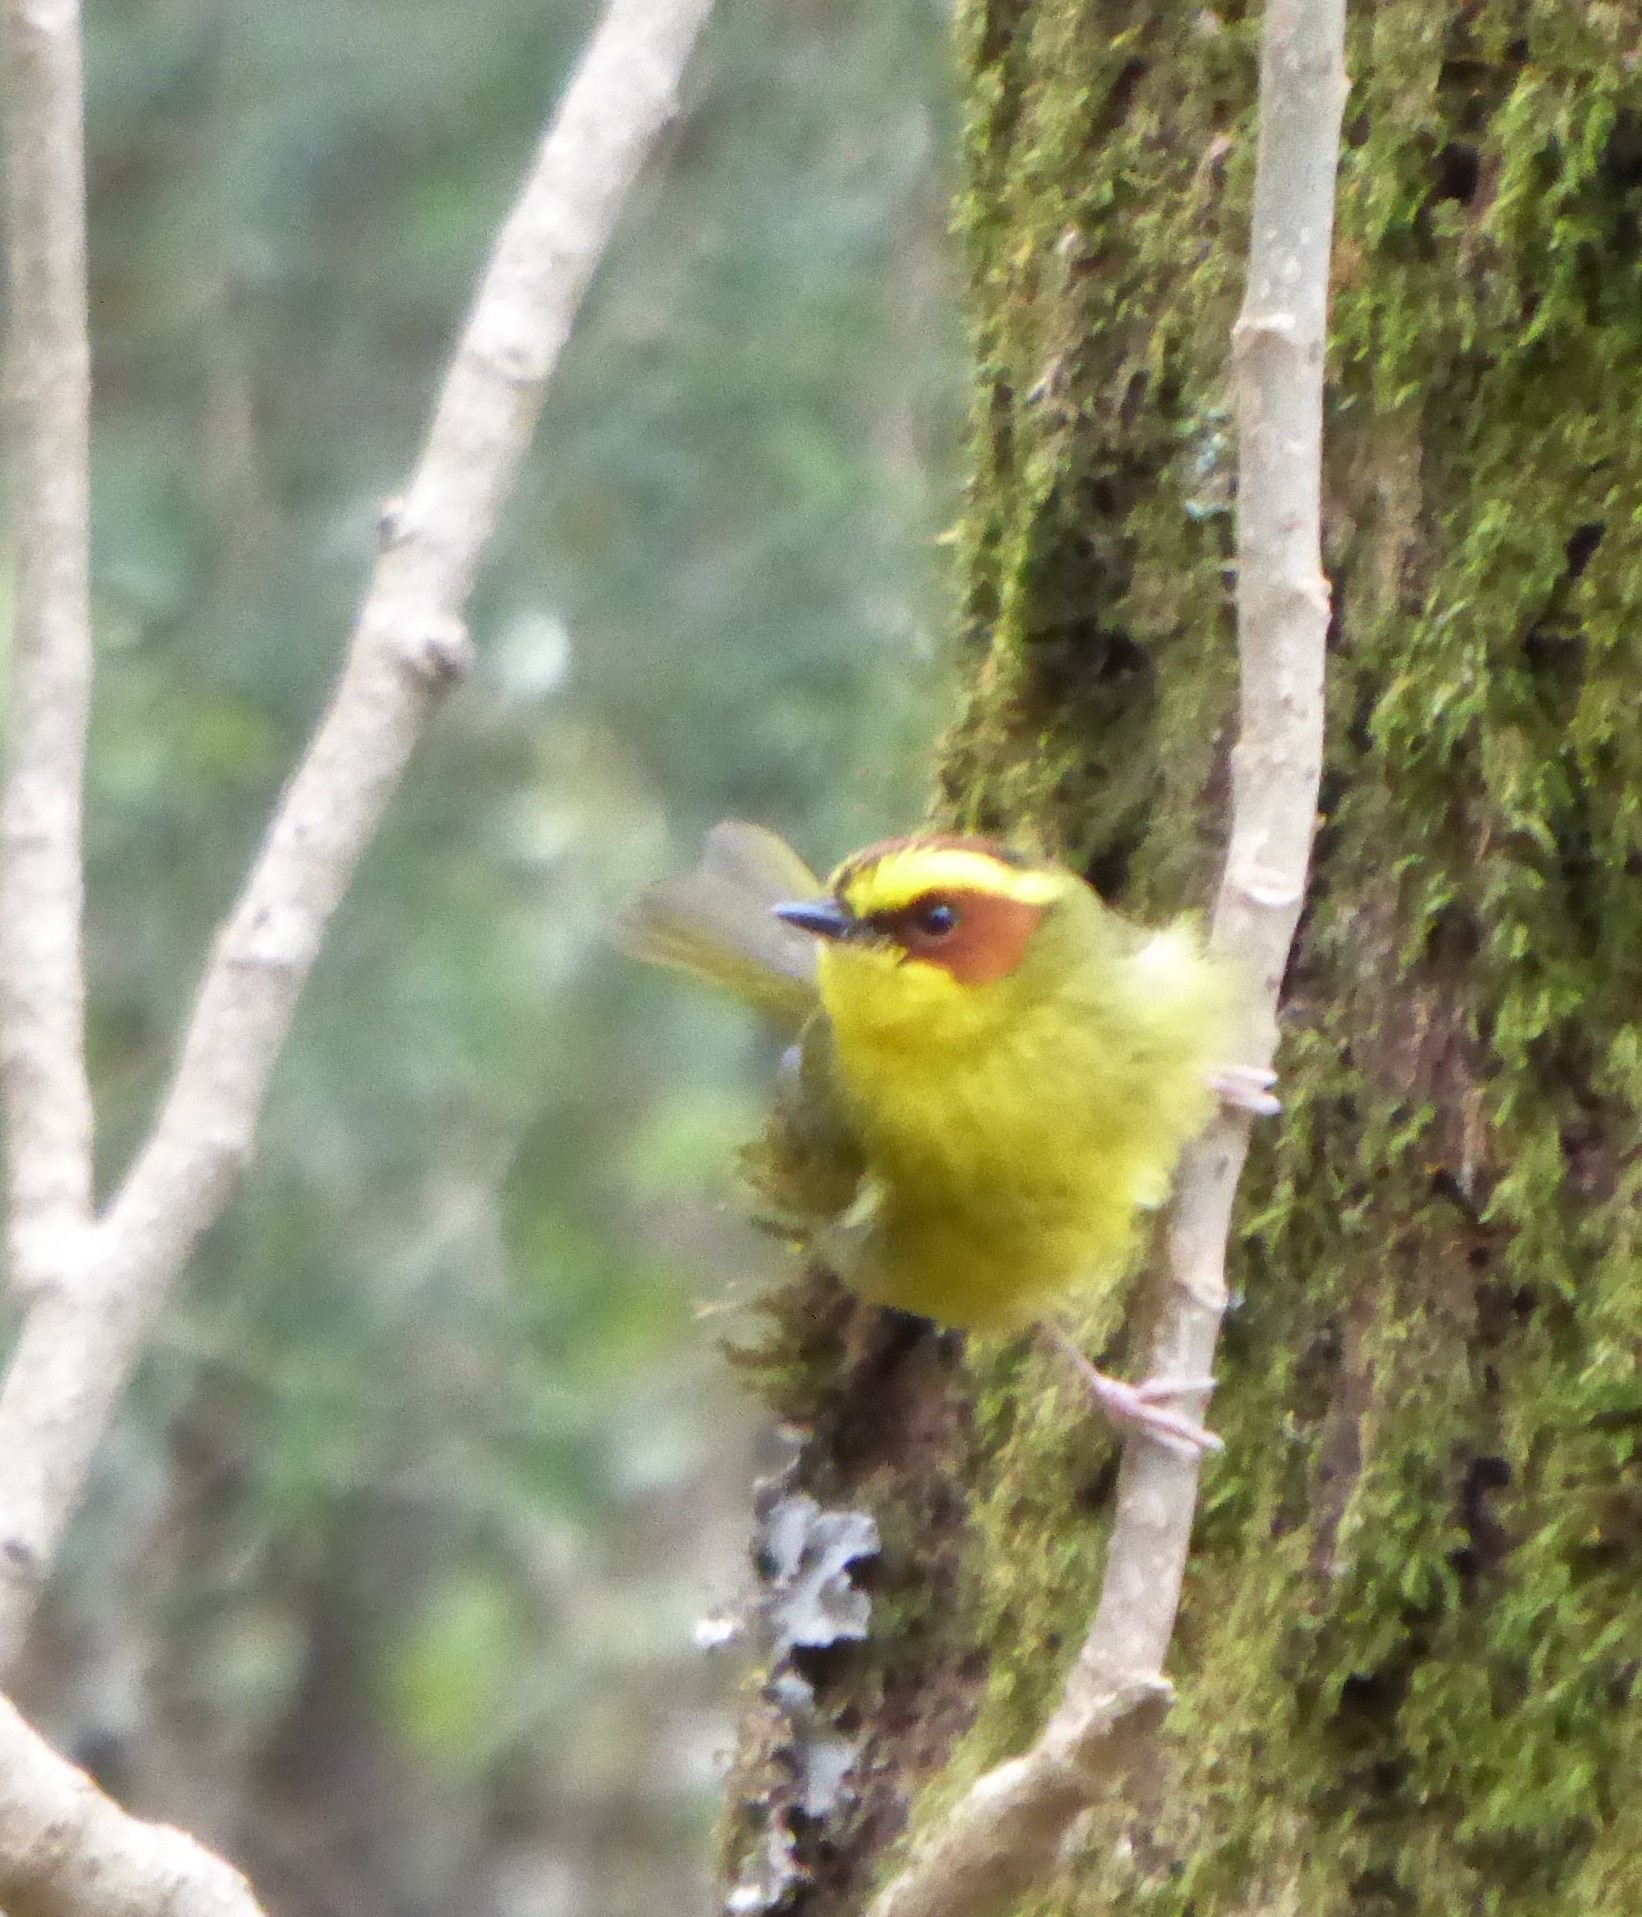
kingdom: Animalia
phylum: Chordata
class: Aves
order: Passeriformes
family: Parulidae
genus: Basileuterus
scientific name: Basileuterus belli
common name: Golden-browed warbler
